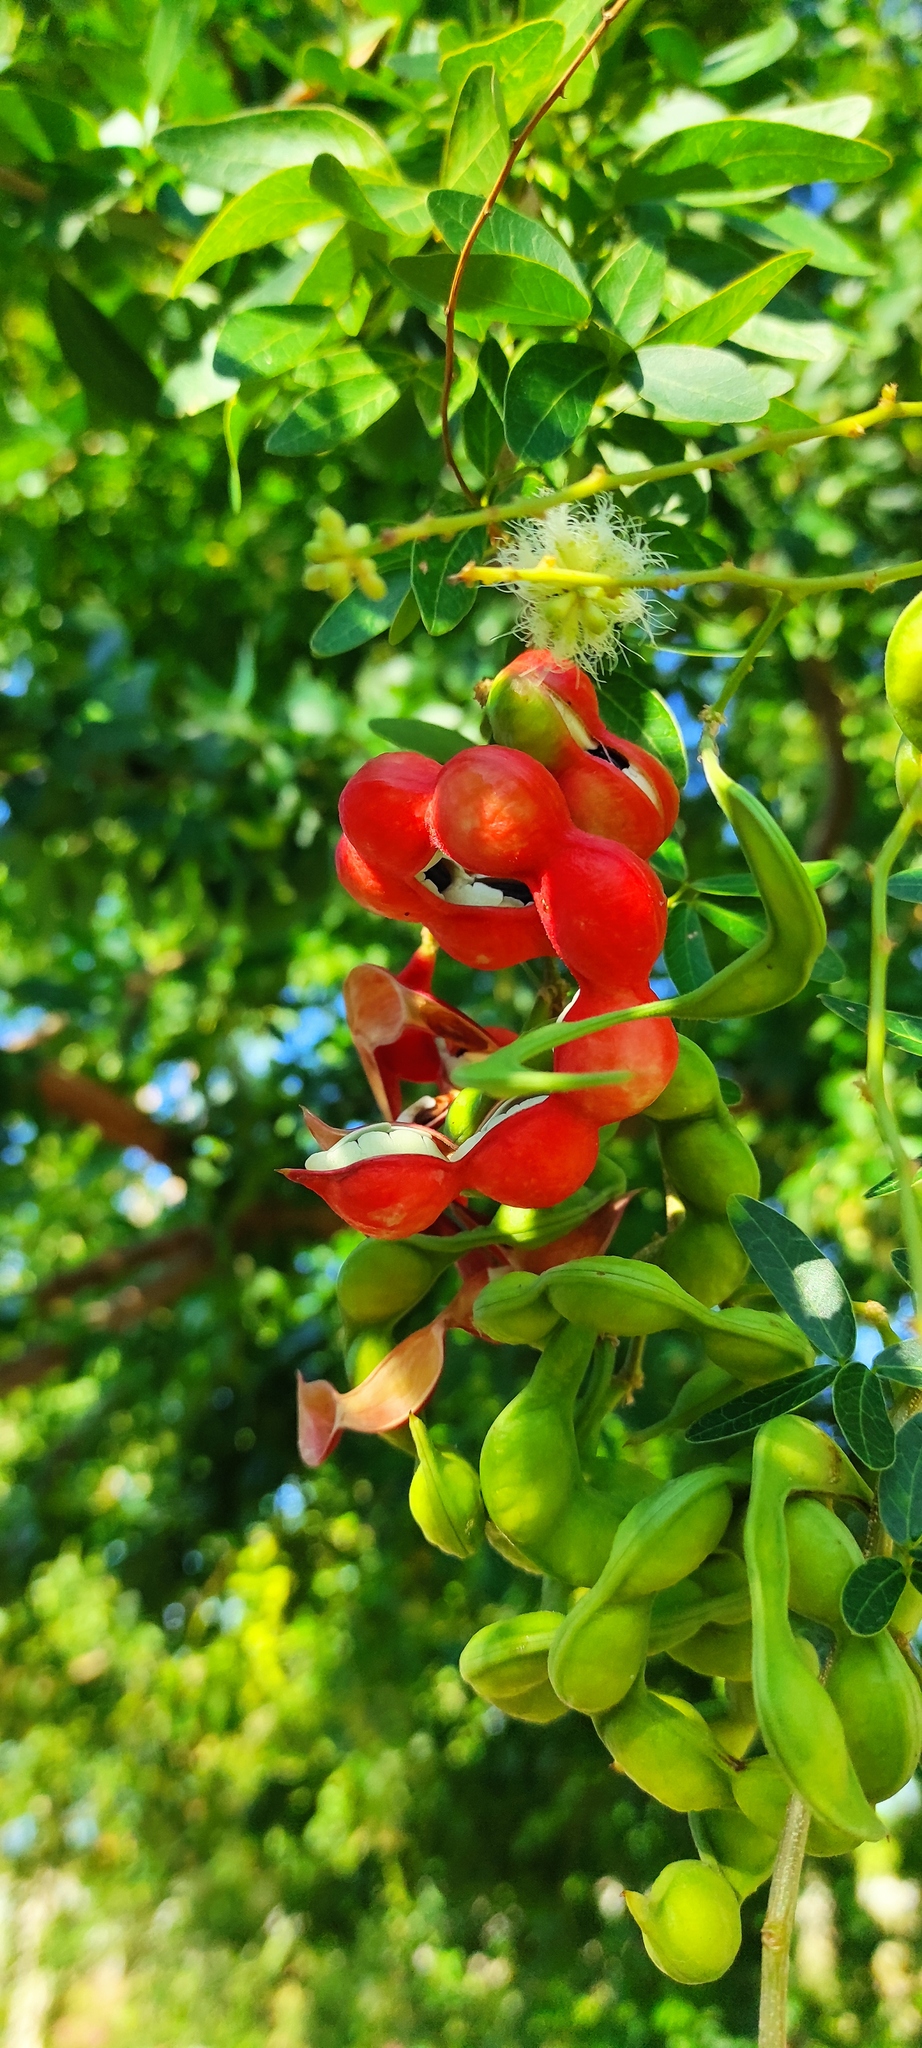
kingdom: Plantae
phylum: Tracheophyta
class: Magnoliopsida
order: Fabales
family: Fabaceae
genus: Pithecellobium
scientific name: Pithecellobium dulce
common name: Monkeypod
